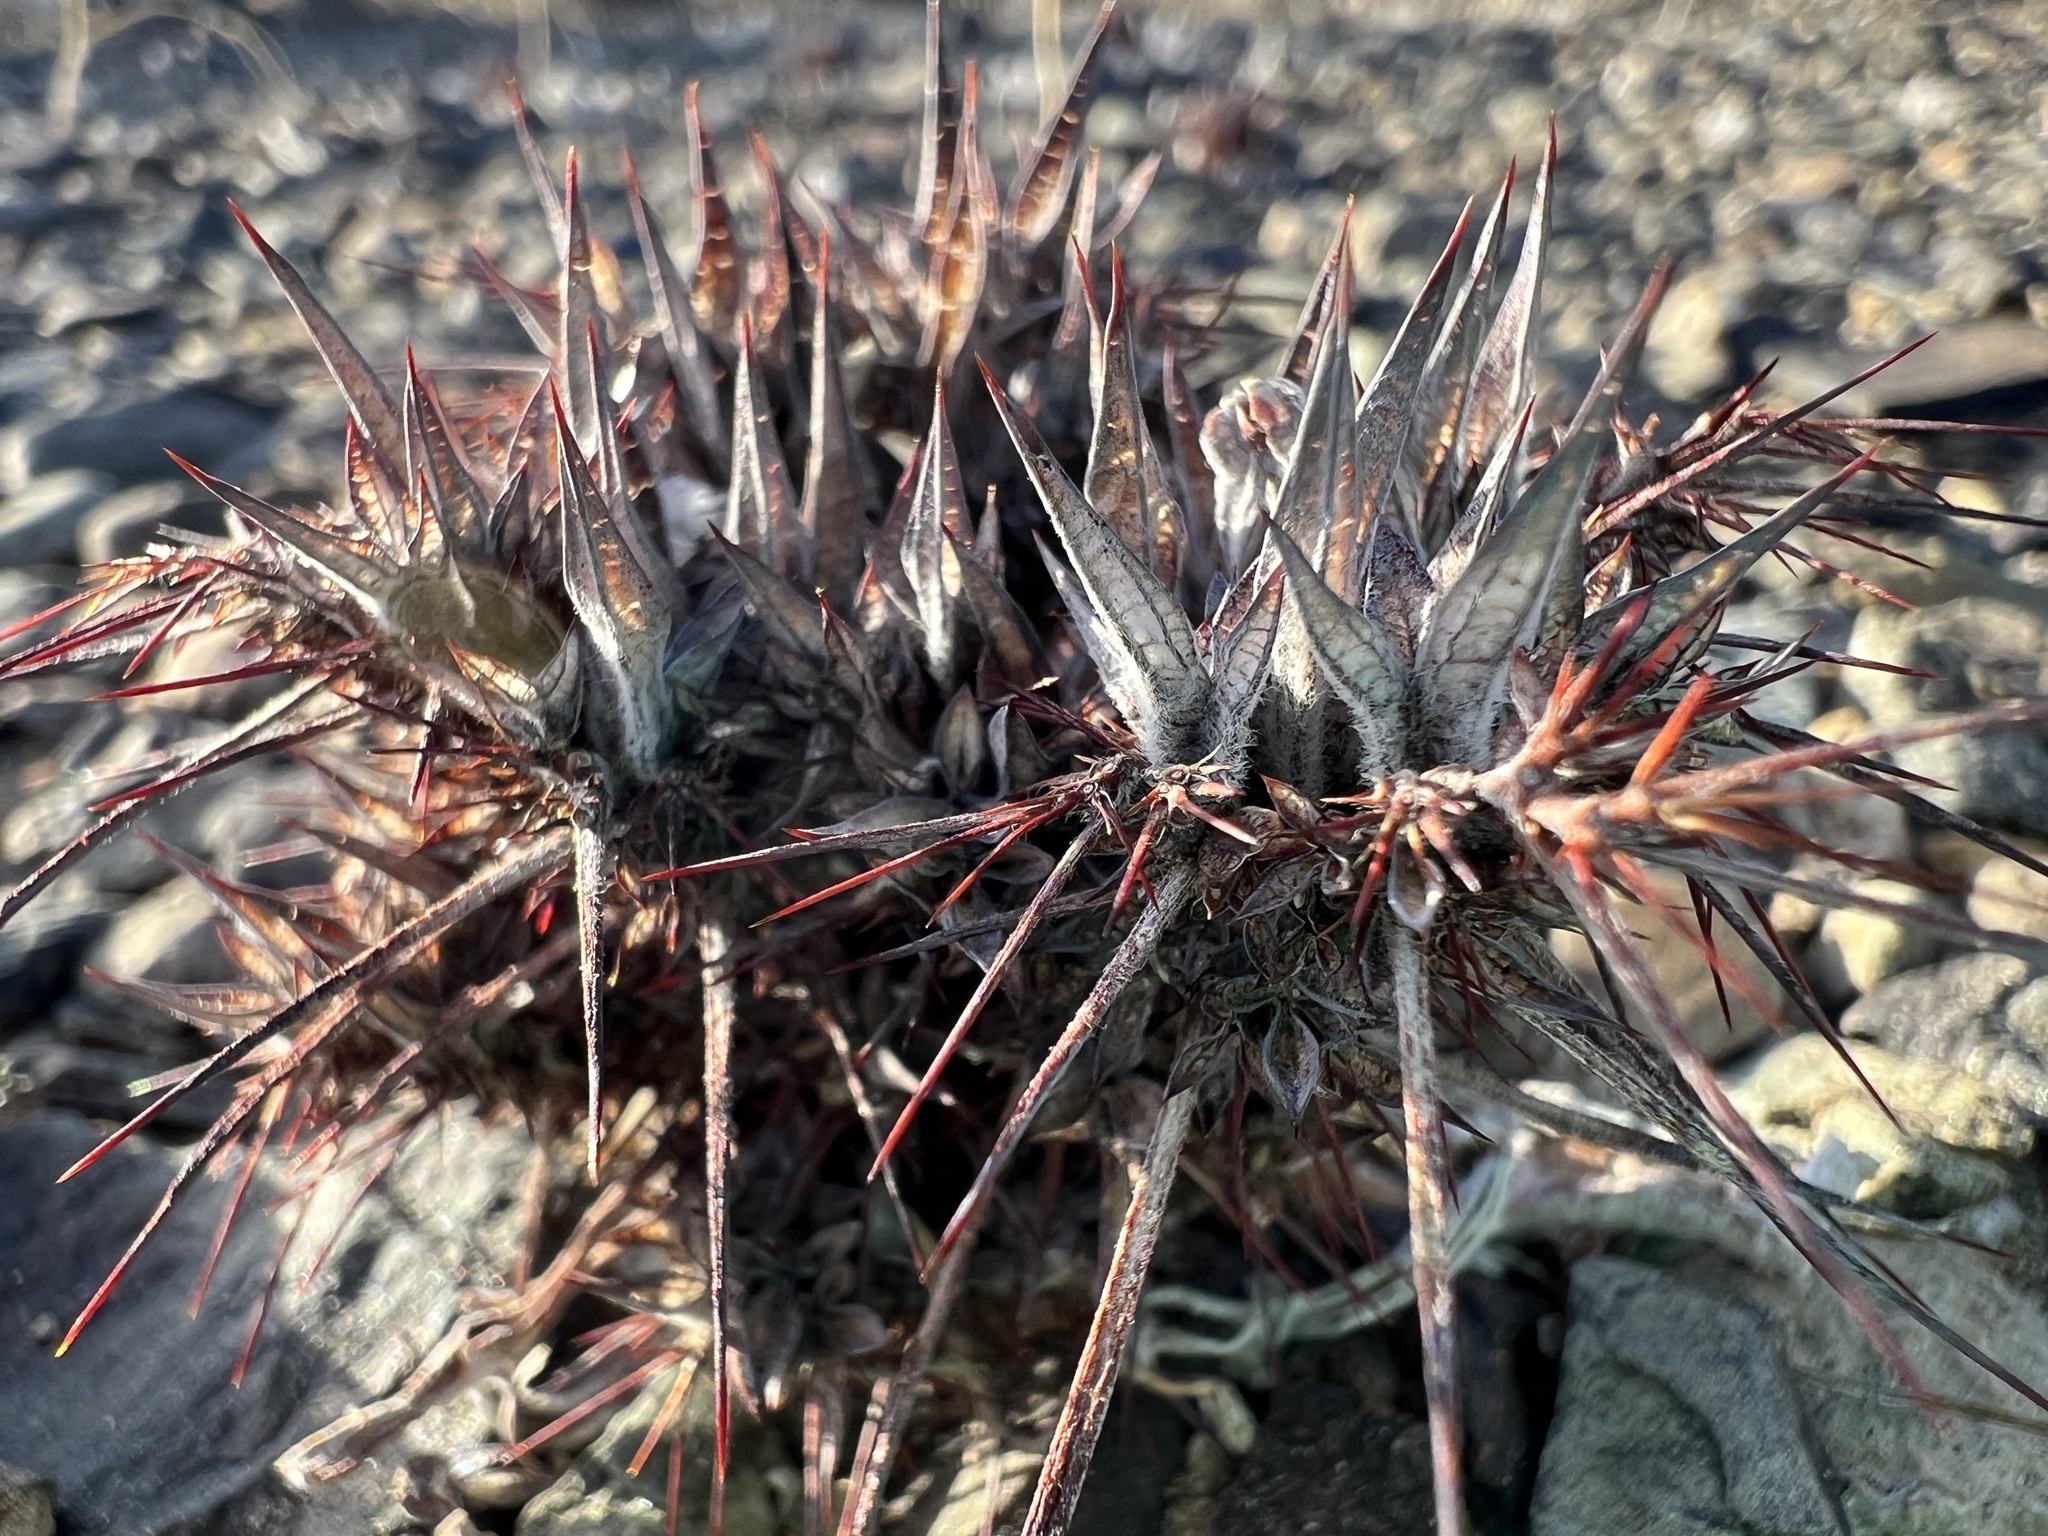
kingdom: Plantae
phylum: Tracheophyta
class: Magnoliopsida
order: Caryophyllales
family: Polygonaceae
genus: Chorizanthe
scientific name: Chorizanthe rigida
